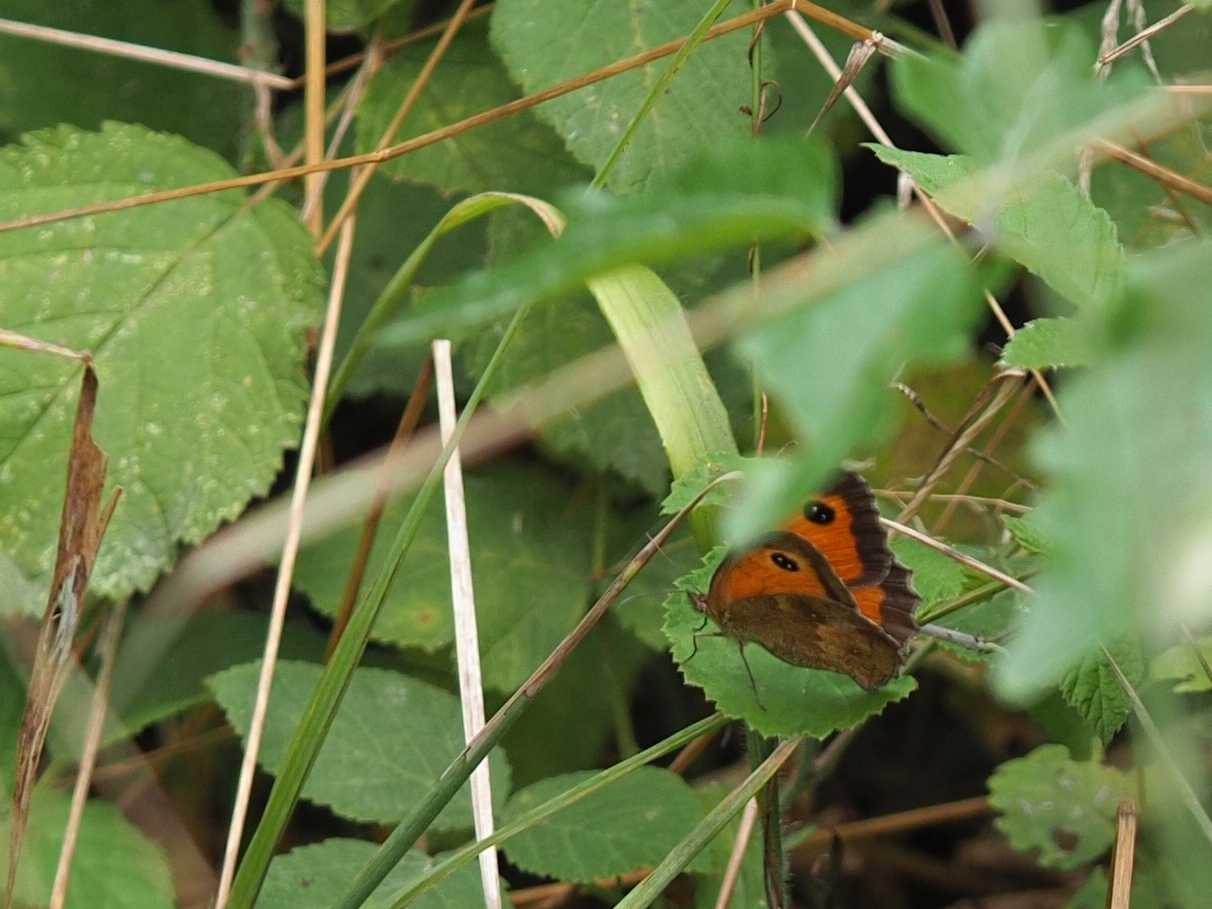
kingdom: Animalia
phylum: Arthropoda
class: Insecta
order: Lepidoptera
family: Nymphalidae
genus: Pyronia
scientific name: Pyronia tithonus
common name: Gatekeeper
